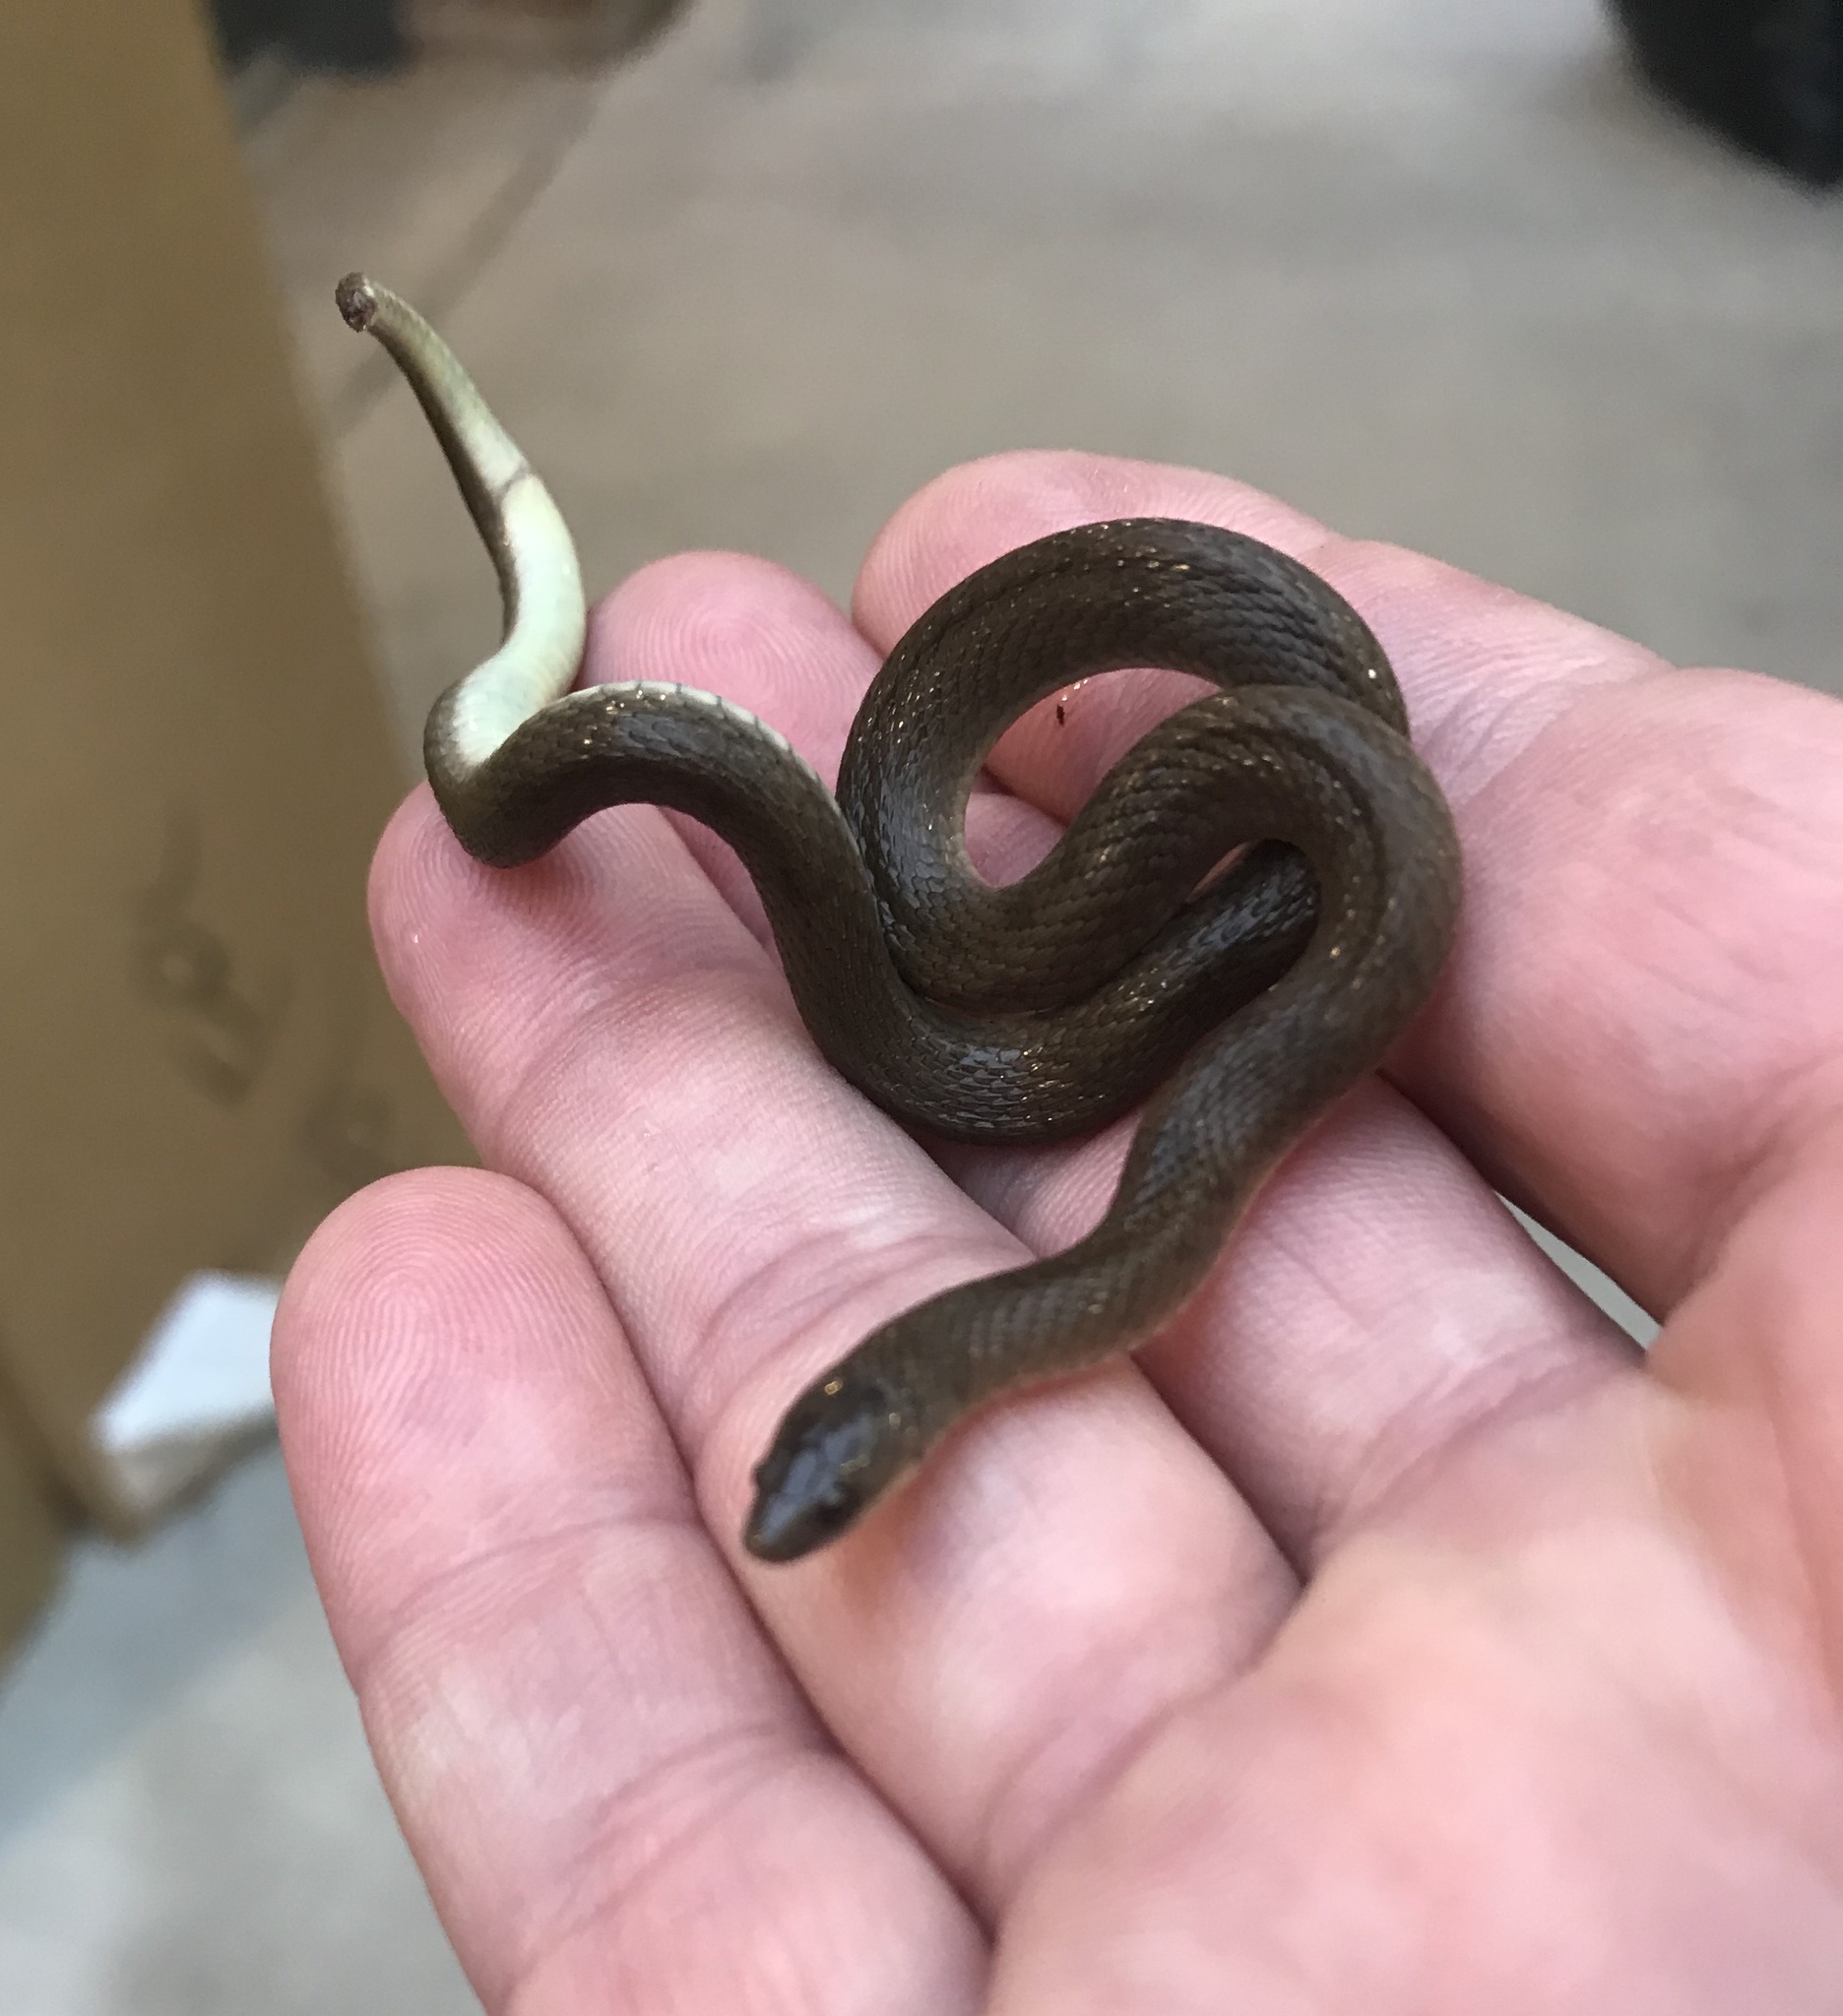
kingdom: Animalia
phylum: Chordata
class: Squamata
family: Colubridae
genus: Haldea
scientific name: Haldea striatula
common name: Rough earth snake
